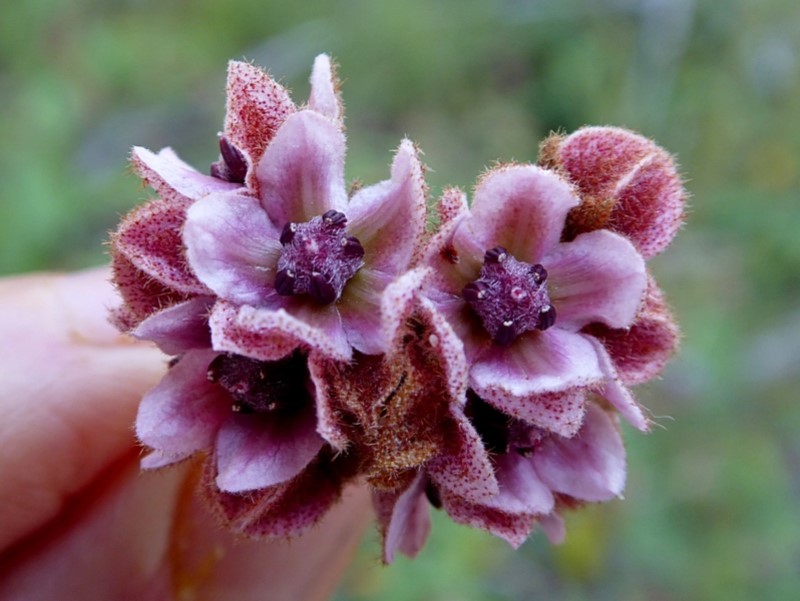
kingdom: Plantae
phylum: Tracheophyta
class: Magnoliopsida
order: Malvales
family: Malvaceae
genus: Lasiopetalum
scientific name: Lasiopetalum macrophyllum
